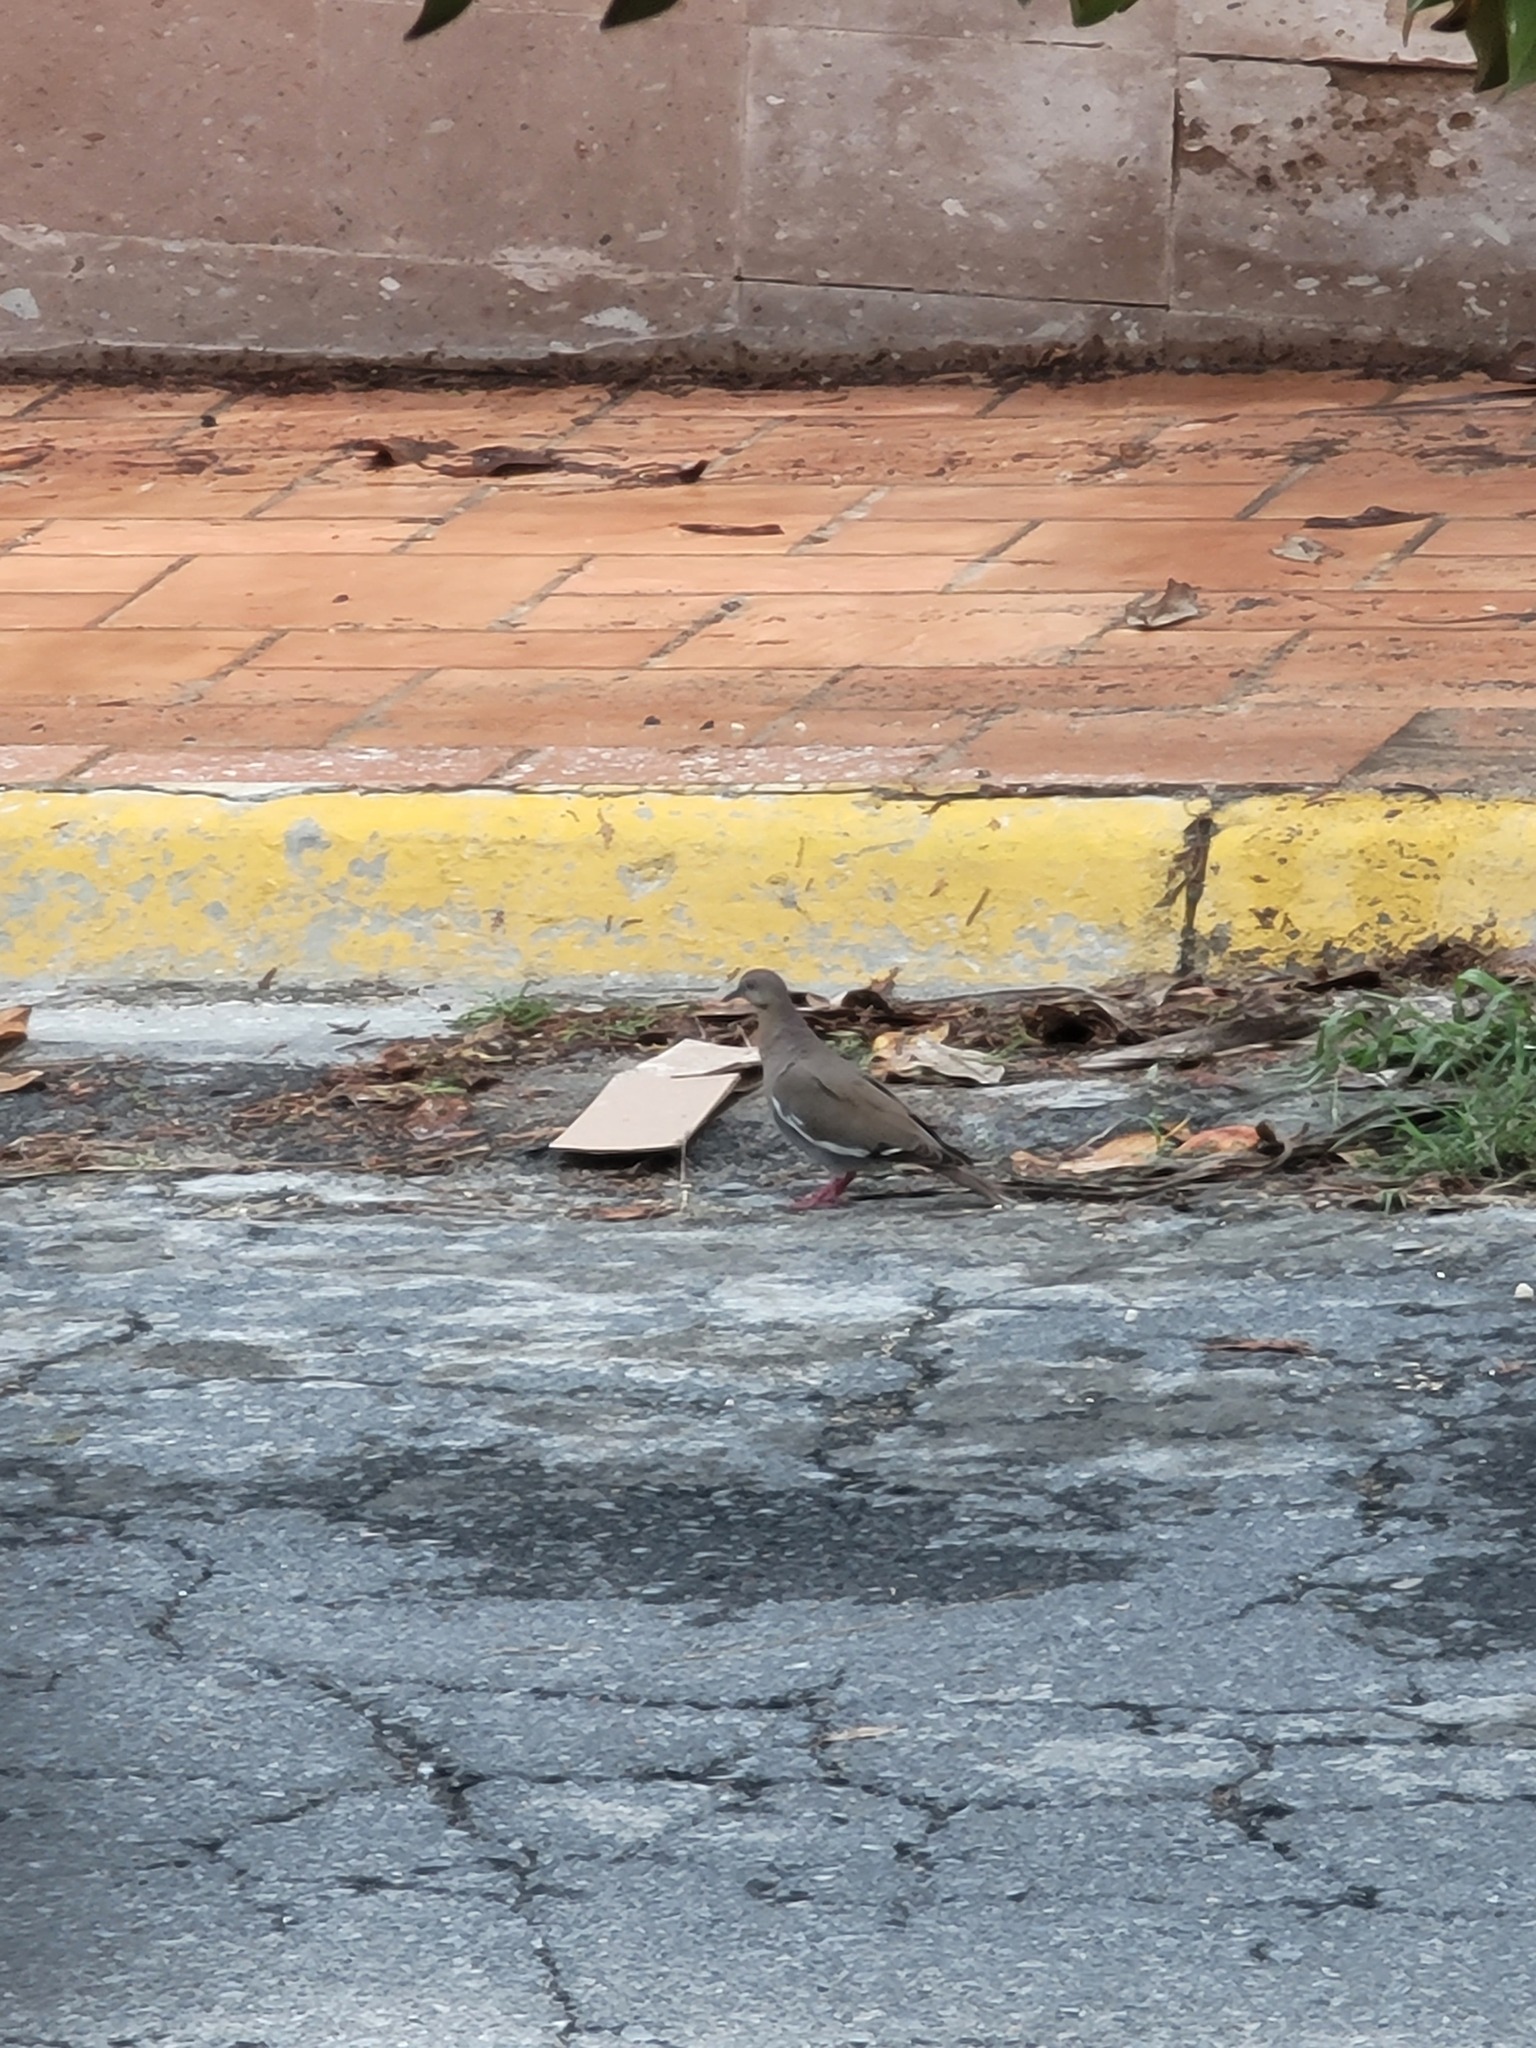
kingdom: Animalia
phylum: Chordata
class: Aves
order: Columbiformes
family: Columbidae
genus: Zenaida
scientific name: Zenaida asiatica
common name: White-winged dove
